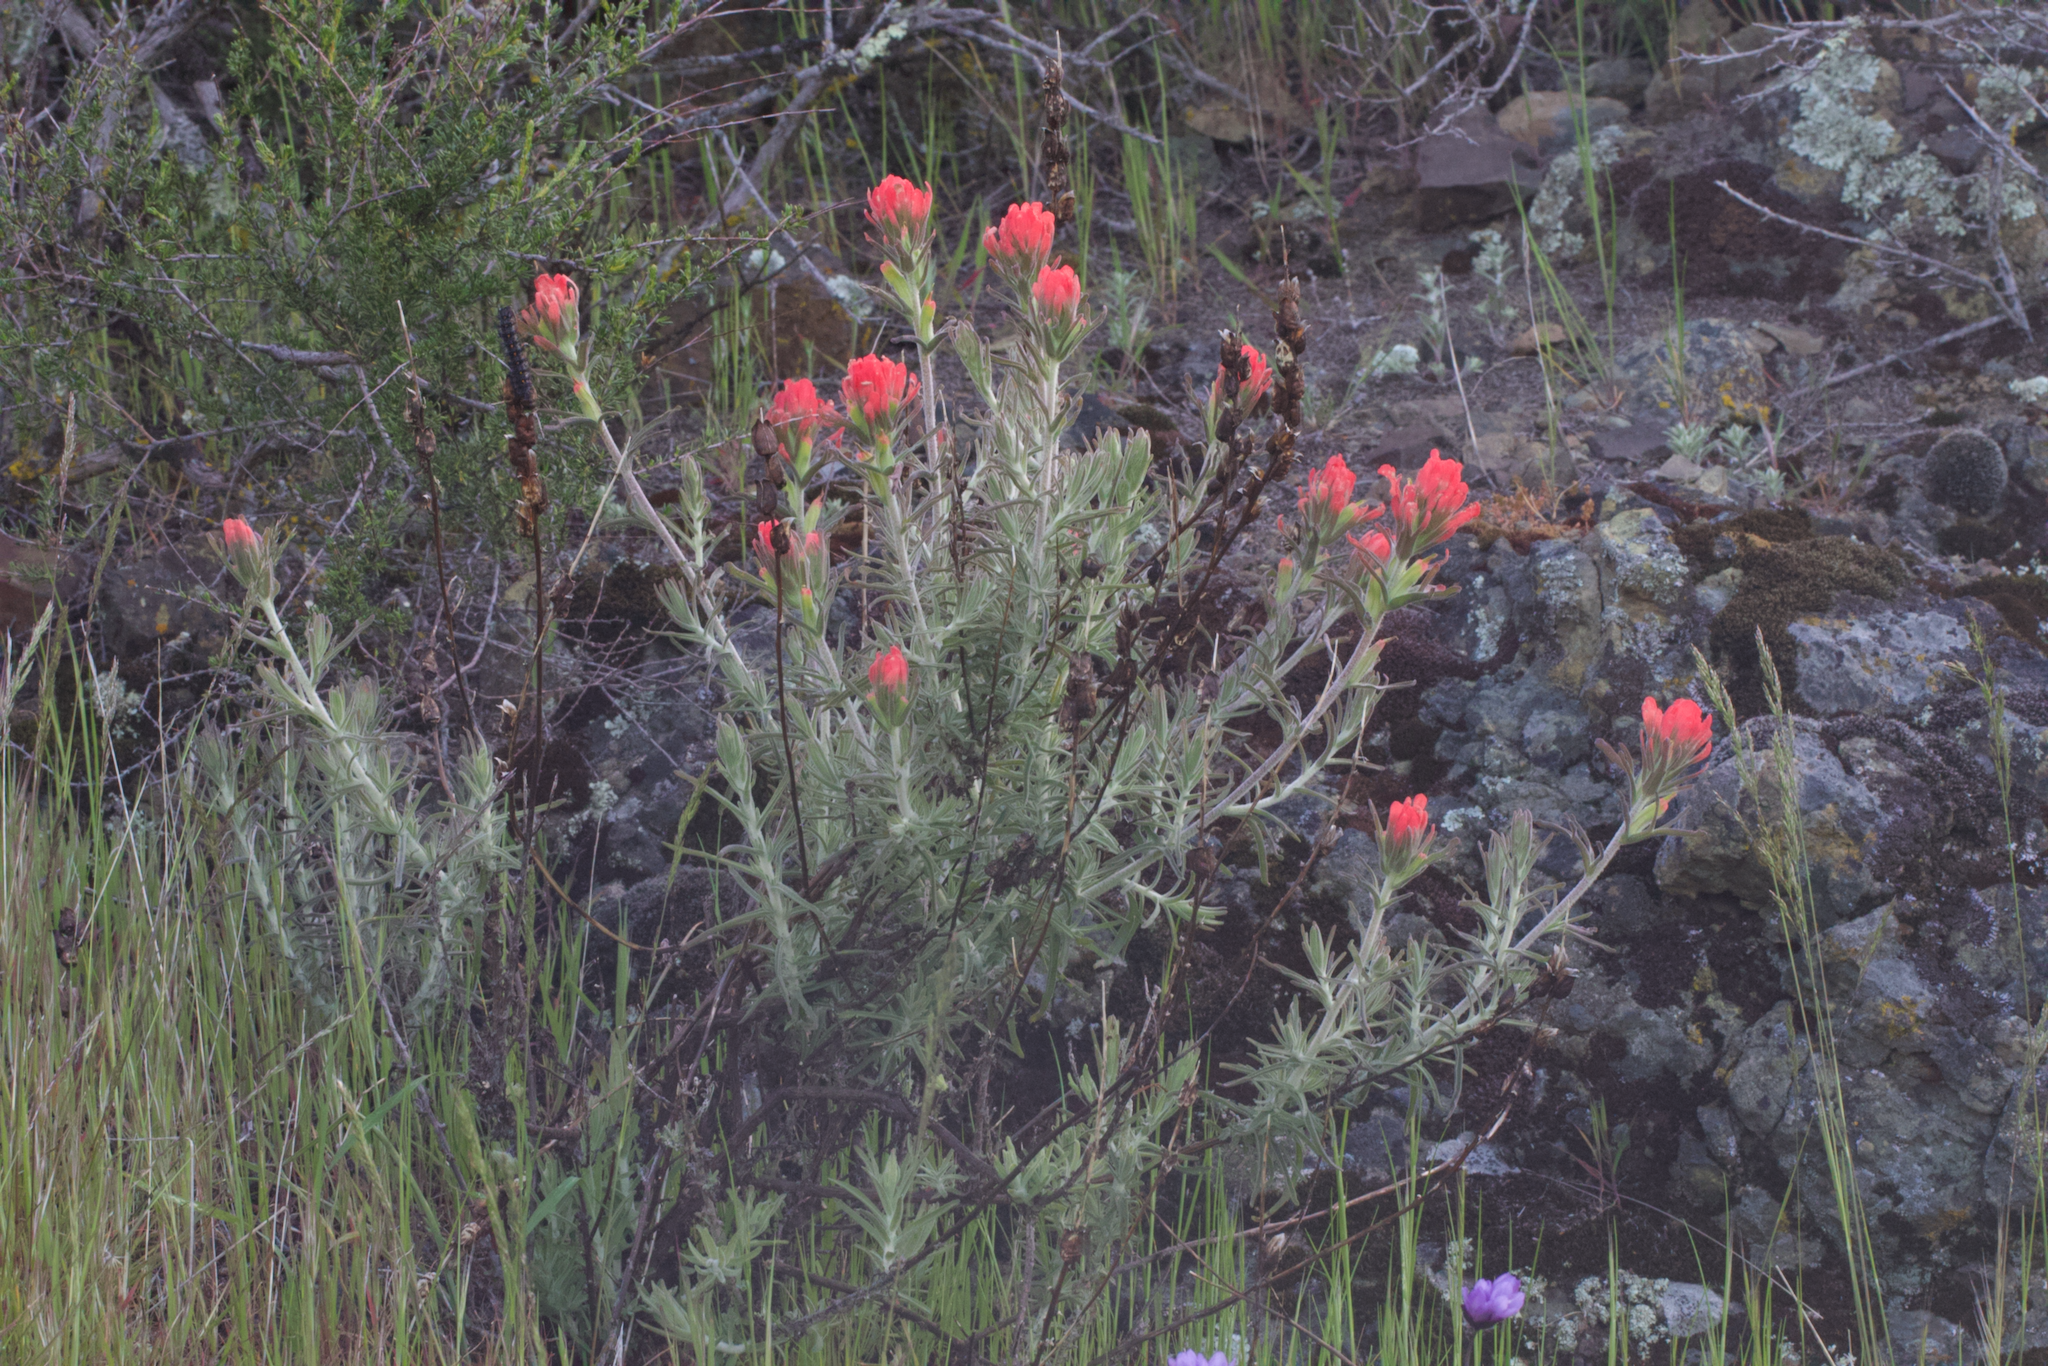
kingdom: Plantae
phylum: Tracheophyta
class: Magnoliopsida
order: Lamiales
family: Orobanchaceae
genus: Castilleja
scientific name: Castilleja foliolosa
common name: Woolly indian paintbrush
